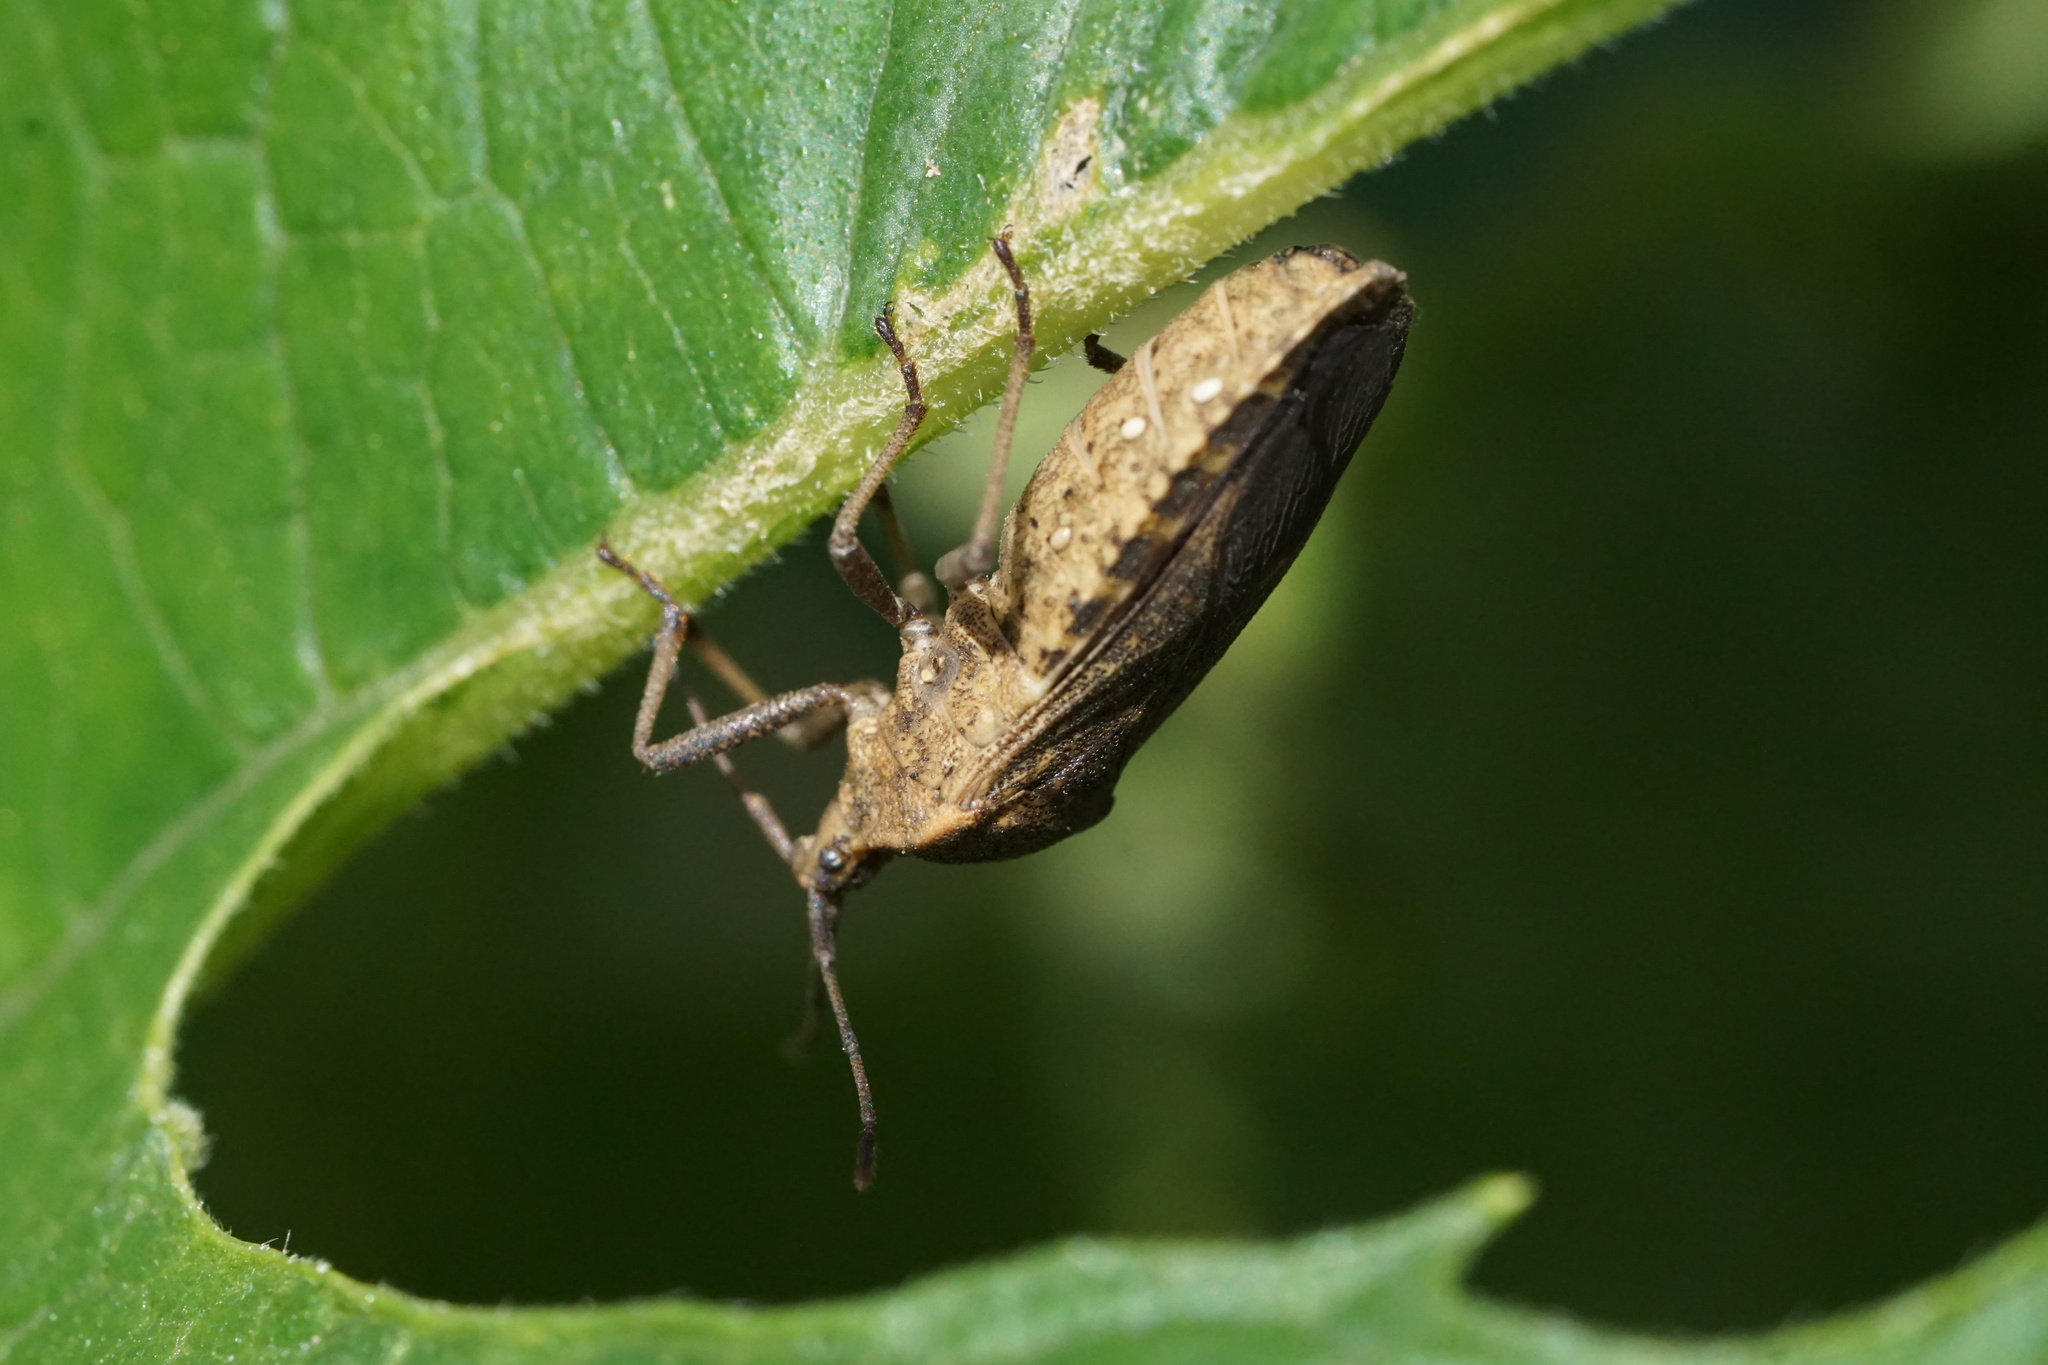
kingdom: Animalia
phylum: Arthropoda
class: Insecta
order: Hemiptera
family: Coreidae
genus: Anasa
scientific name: Anasa tristis
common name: Squash bug
